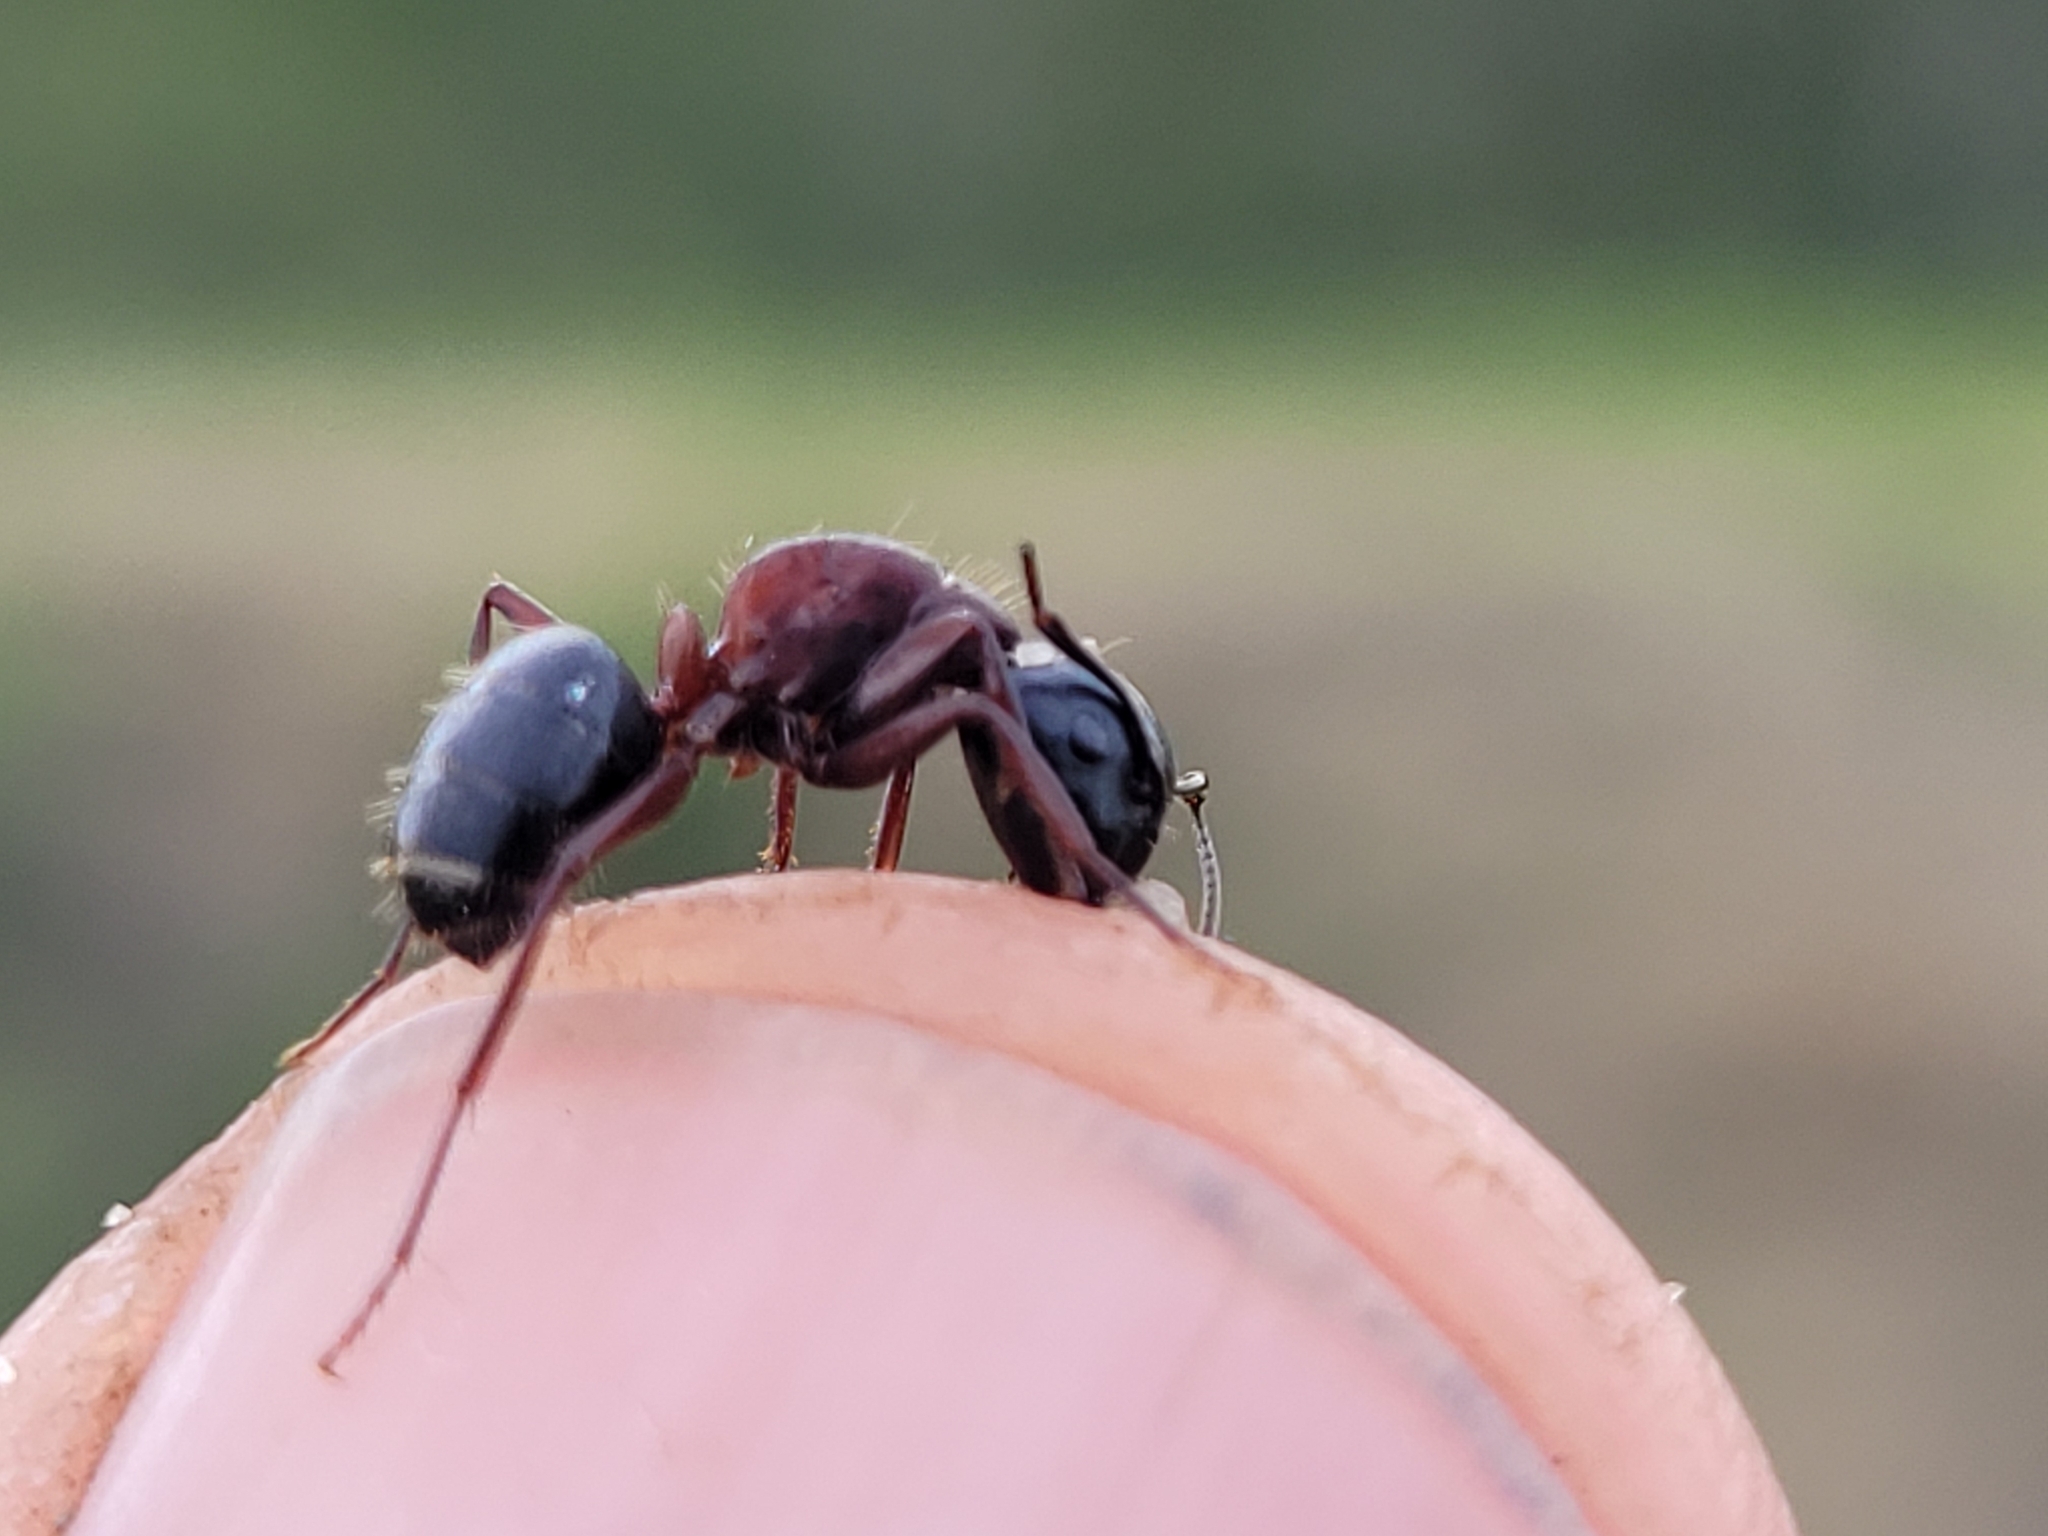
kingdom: Animalia
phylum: Arthropoda
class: Insecta
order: Hymenoptera
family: Formicidae
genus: Camponotus
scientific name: Camponotus novaeboracensis
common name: New york carpenter ant
